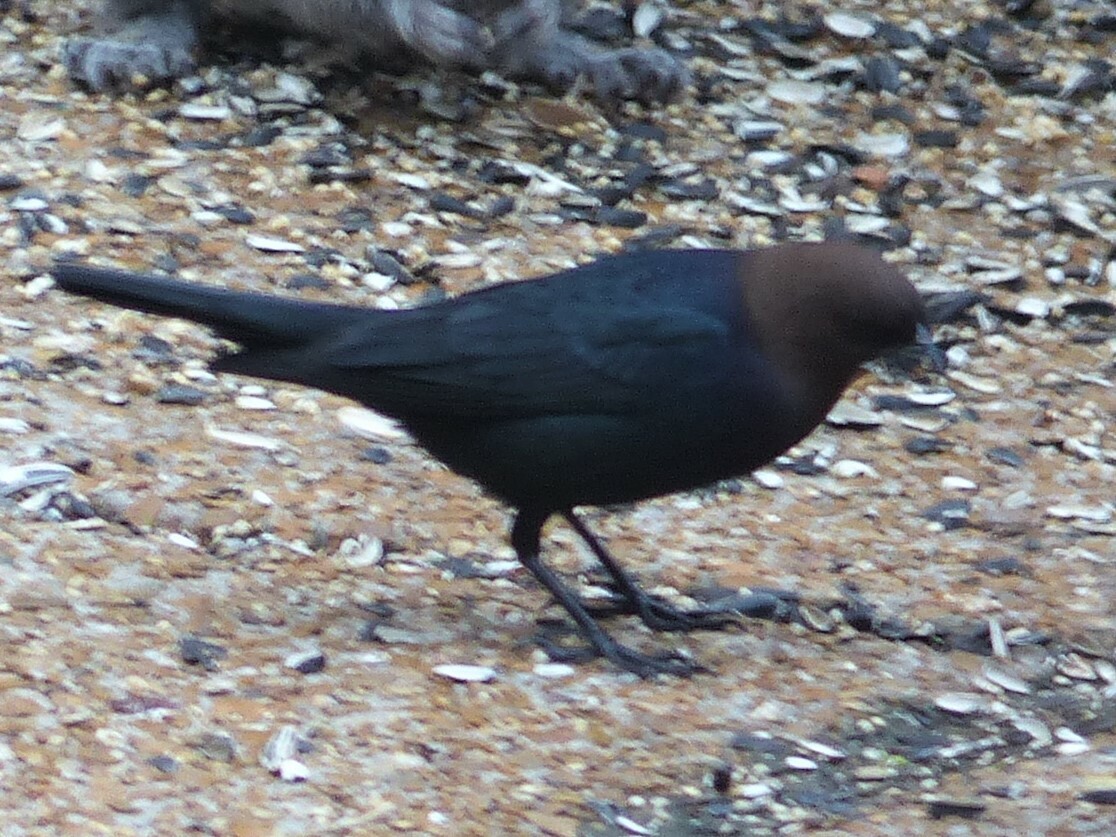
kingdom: Animalia
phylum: Chordata
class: Aves
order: Passeriformes
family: Icteridae
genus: Molothrus
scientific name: Molothrus ater
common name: Brown-headed cowbird
